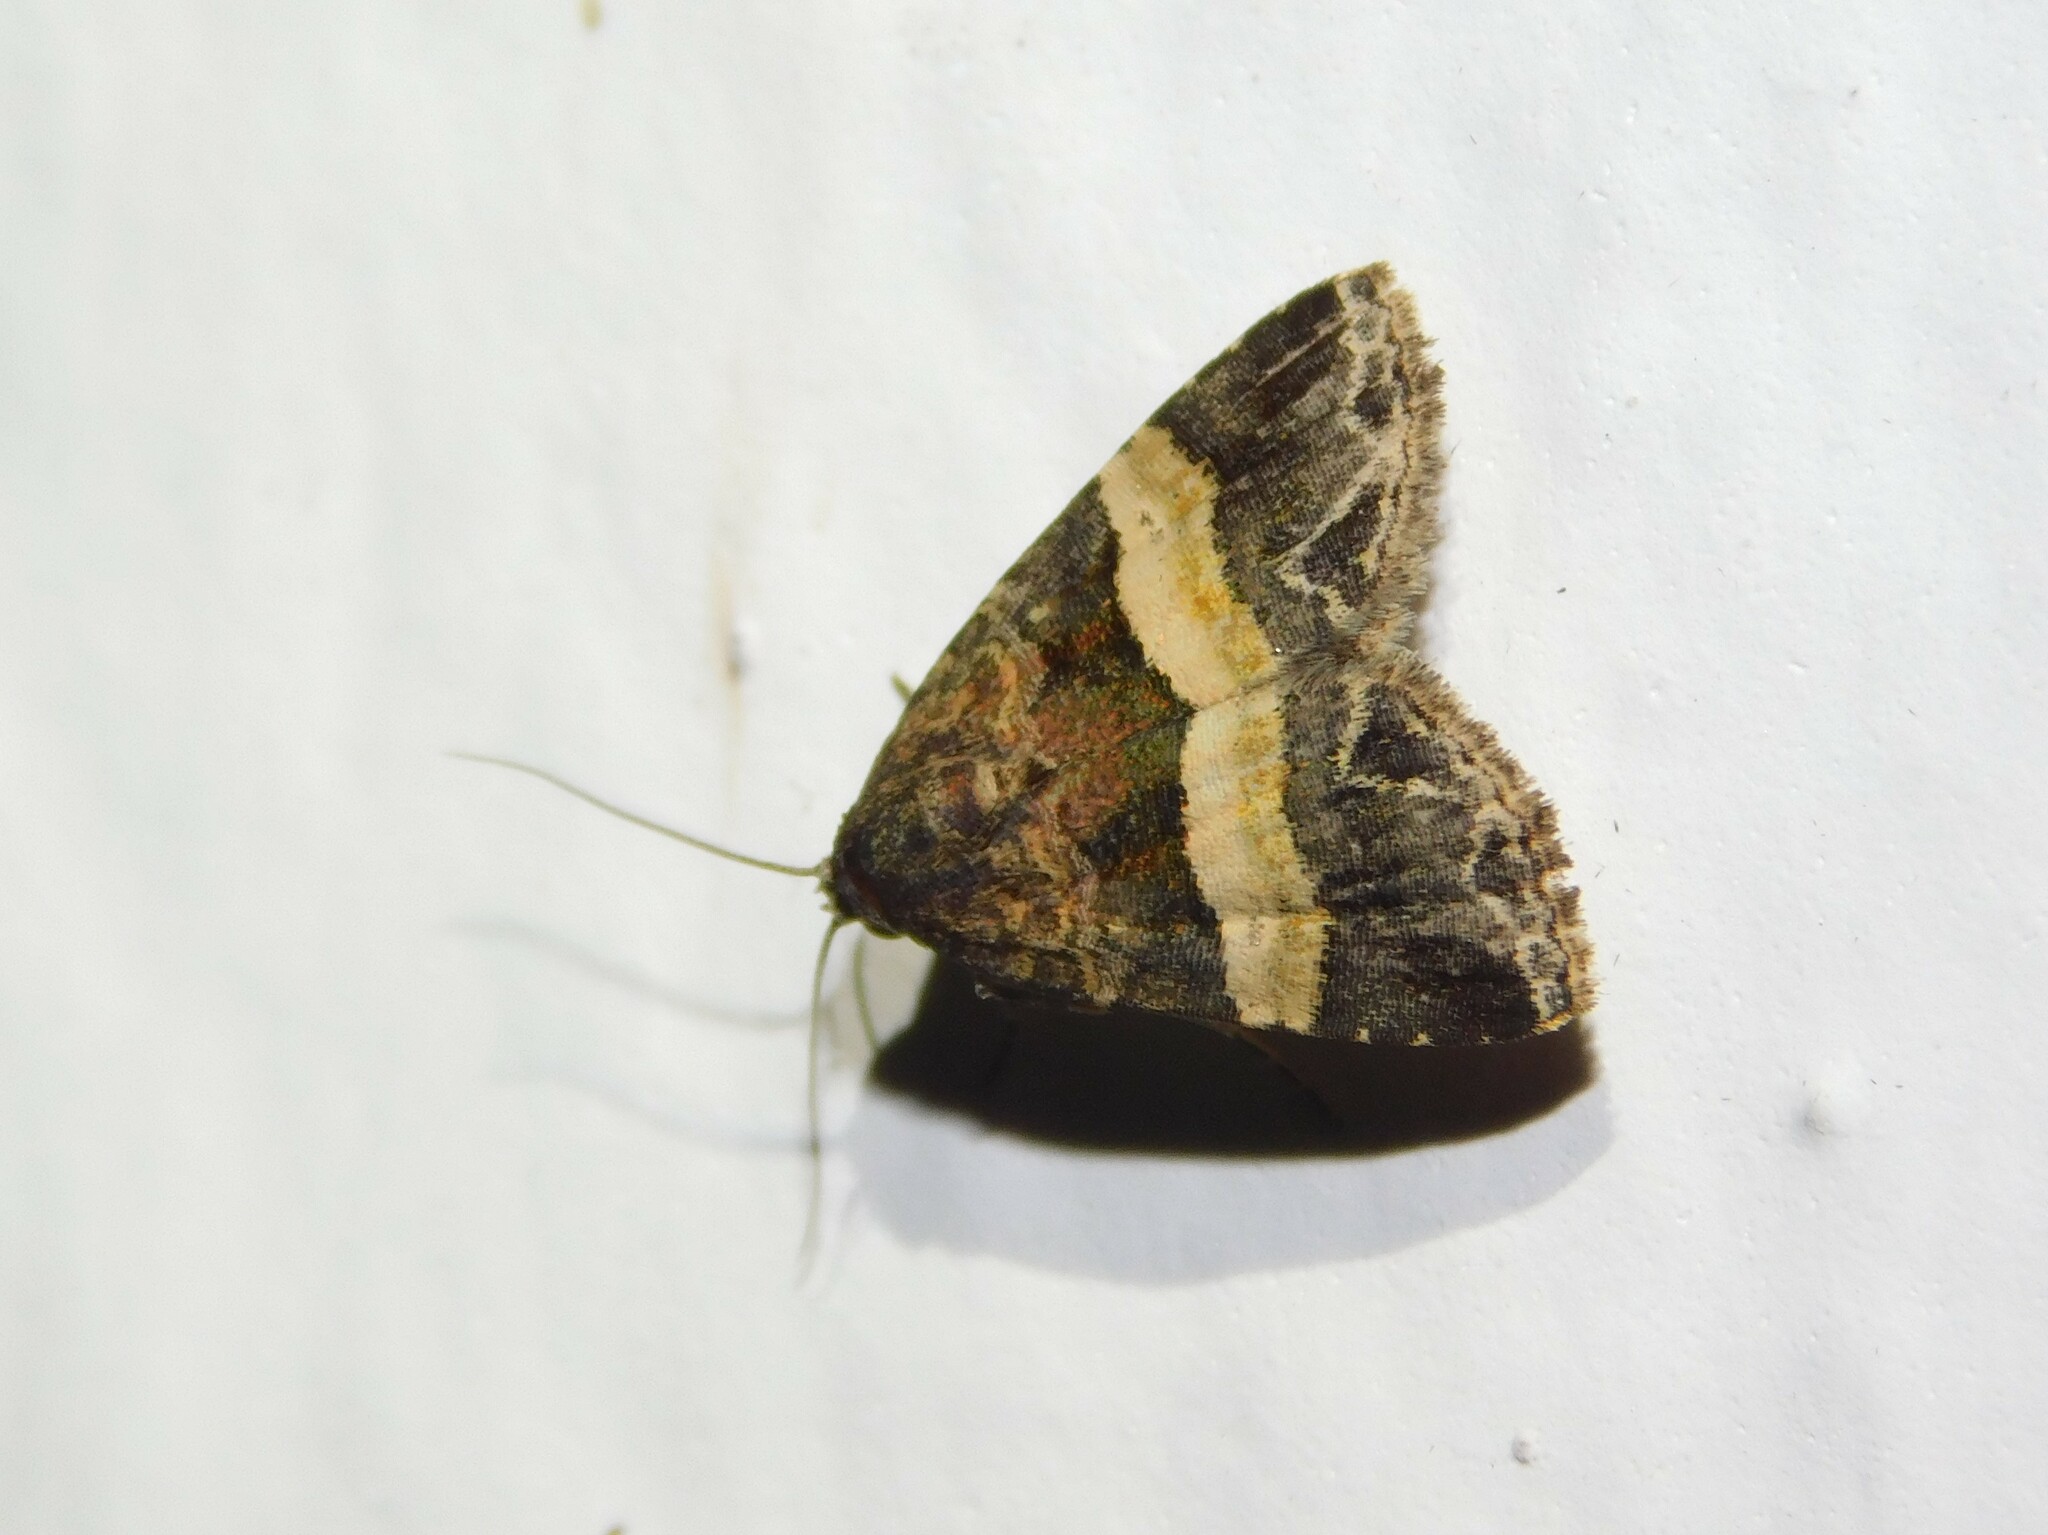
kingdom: Animalia
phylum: Arthropoda
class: Insecta
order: Lepidoptera
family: Noctuidae
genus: Ozarba
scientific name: Ozarba domina
